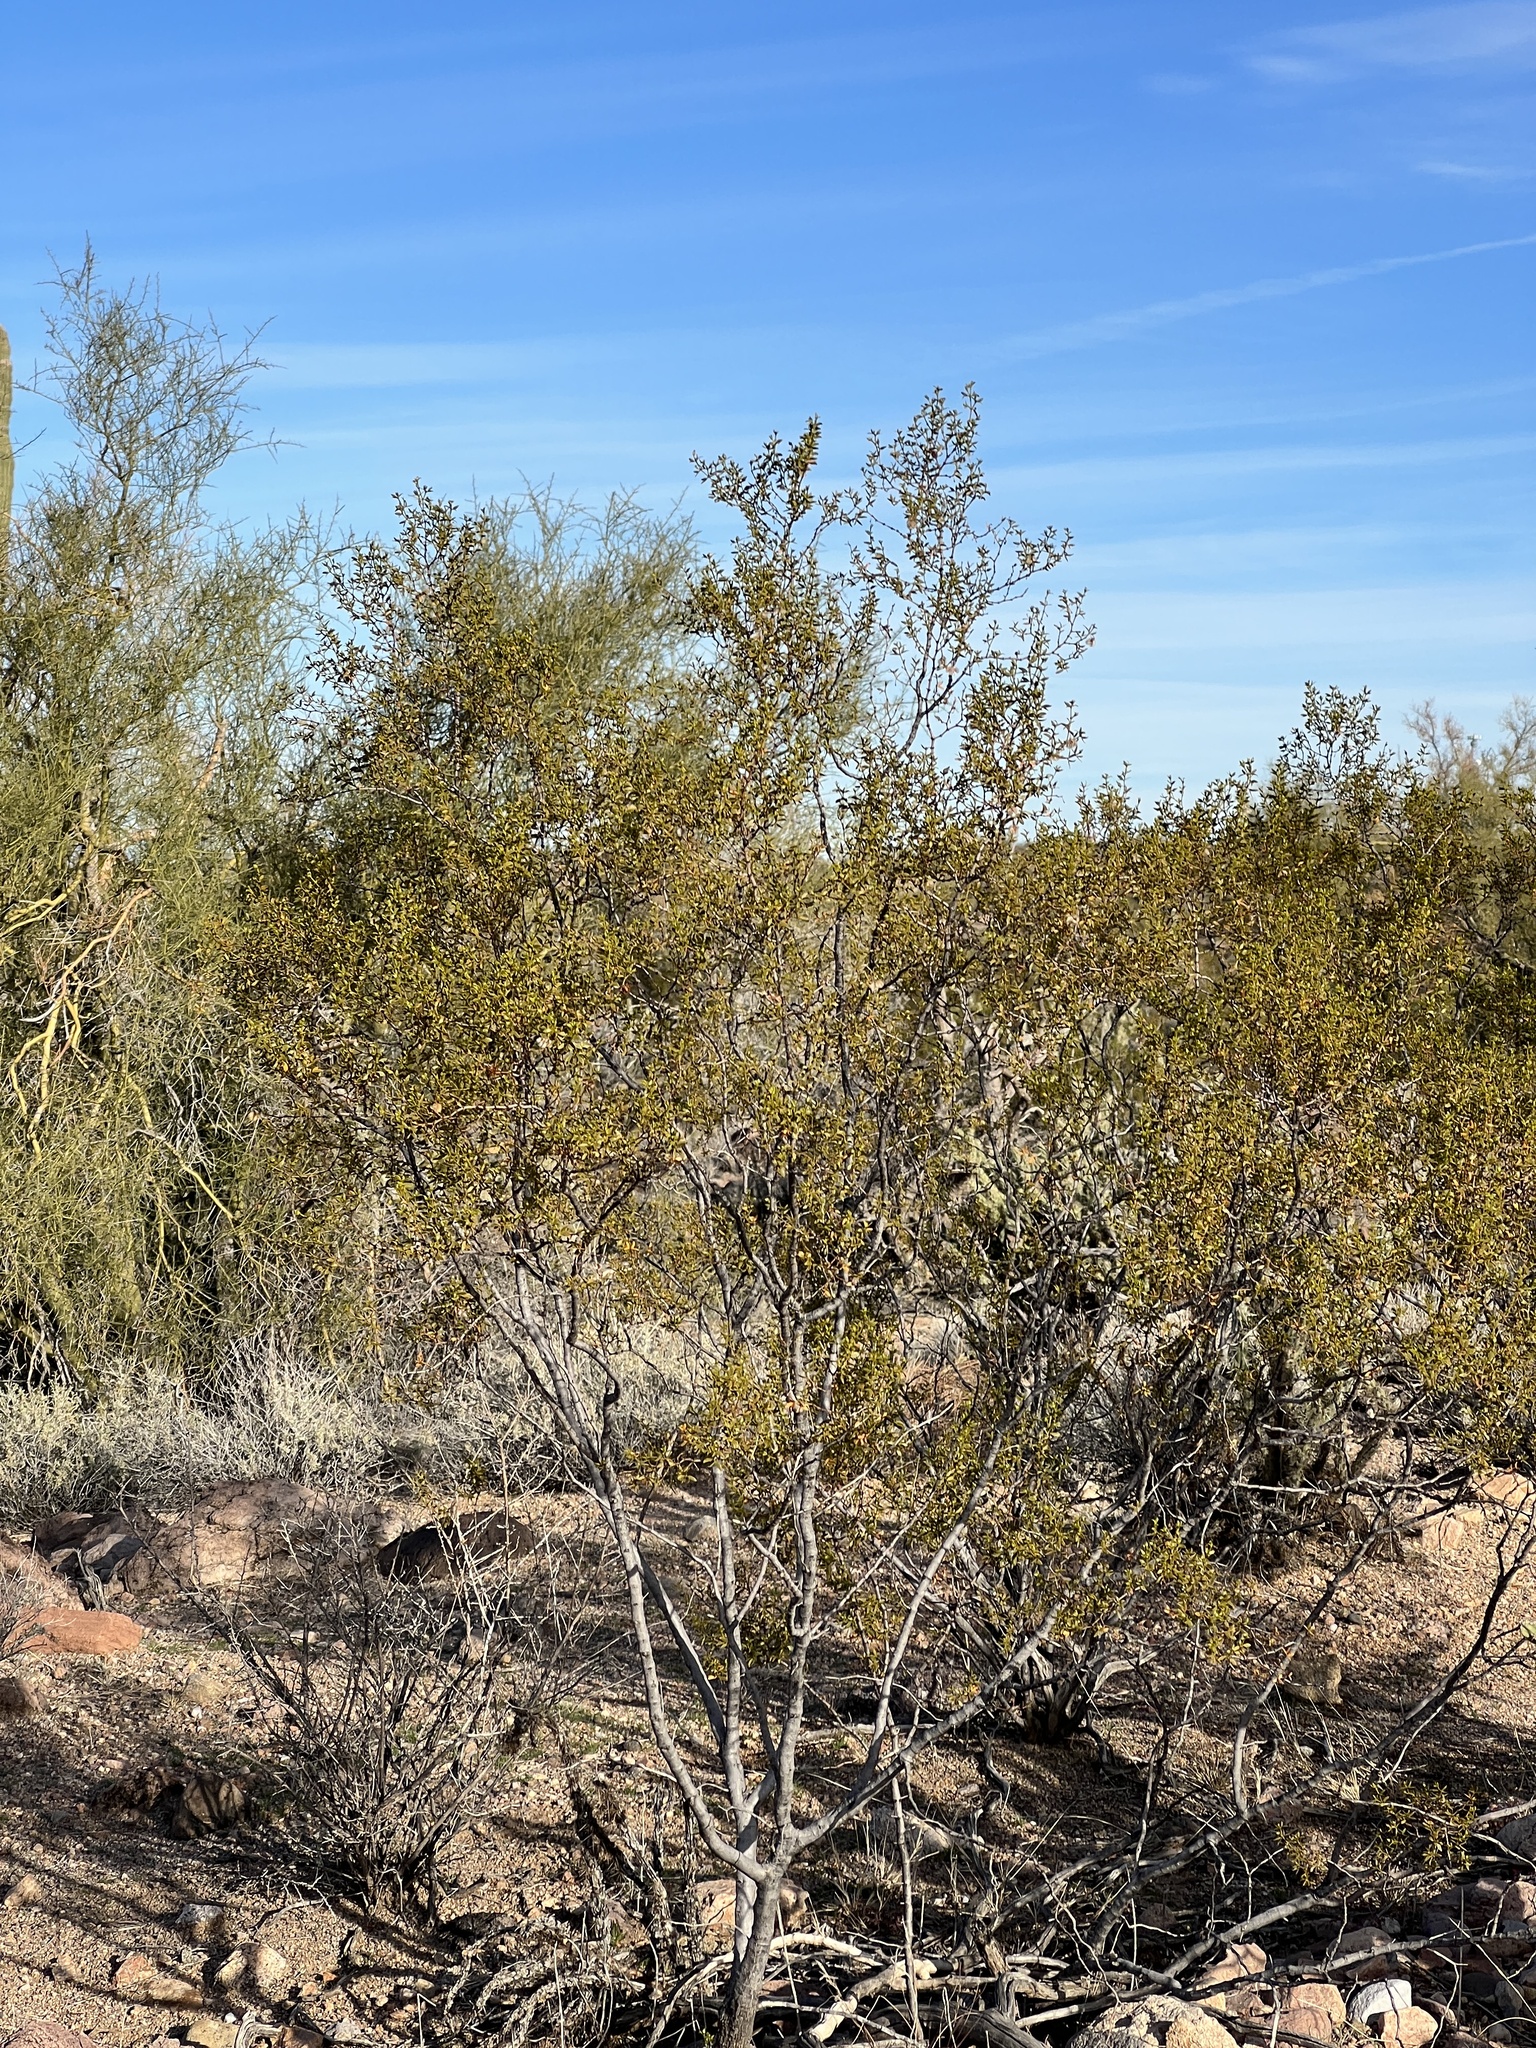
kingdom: Plantae
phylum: Tracheophyta
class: Magnoliopsida
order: Zygophyllales
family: Zygophyllaceae
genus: Larrea
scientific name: Larrea tridentata
